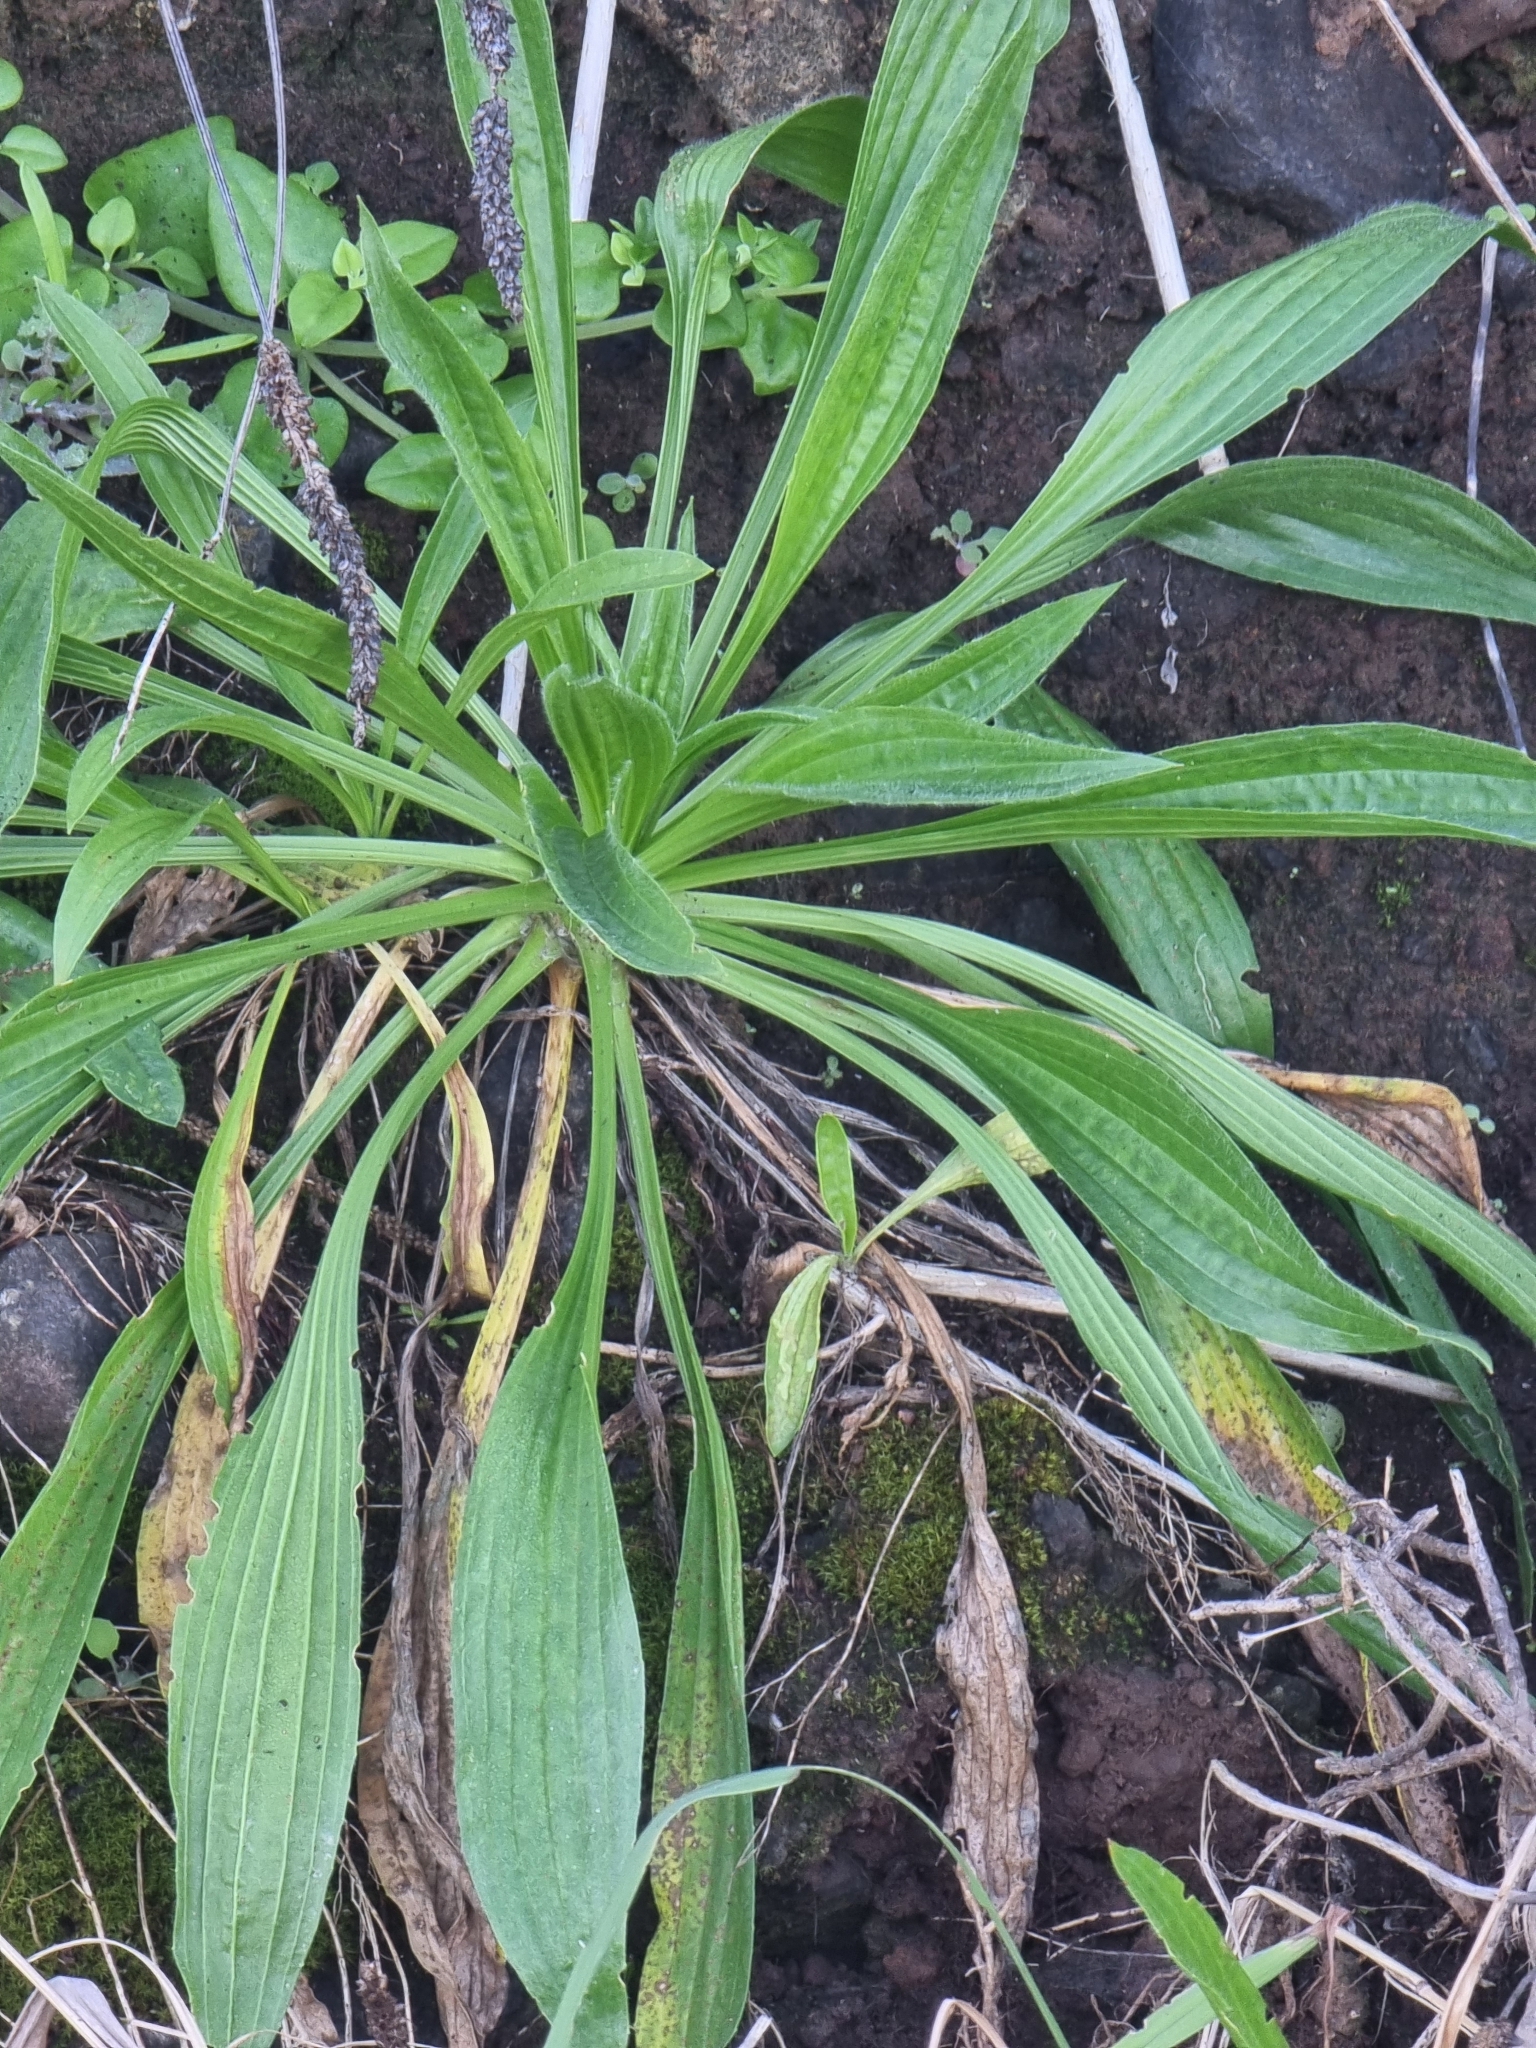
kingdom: Plantae
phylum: Tracheophyta
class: Magnoliopsida
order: Lamiales
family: Plantaginaceae
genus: Plantago
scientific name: Plantago lanceolata
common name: Ribwort plantain
